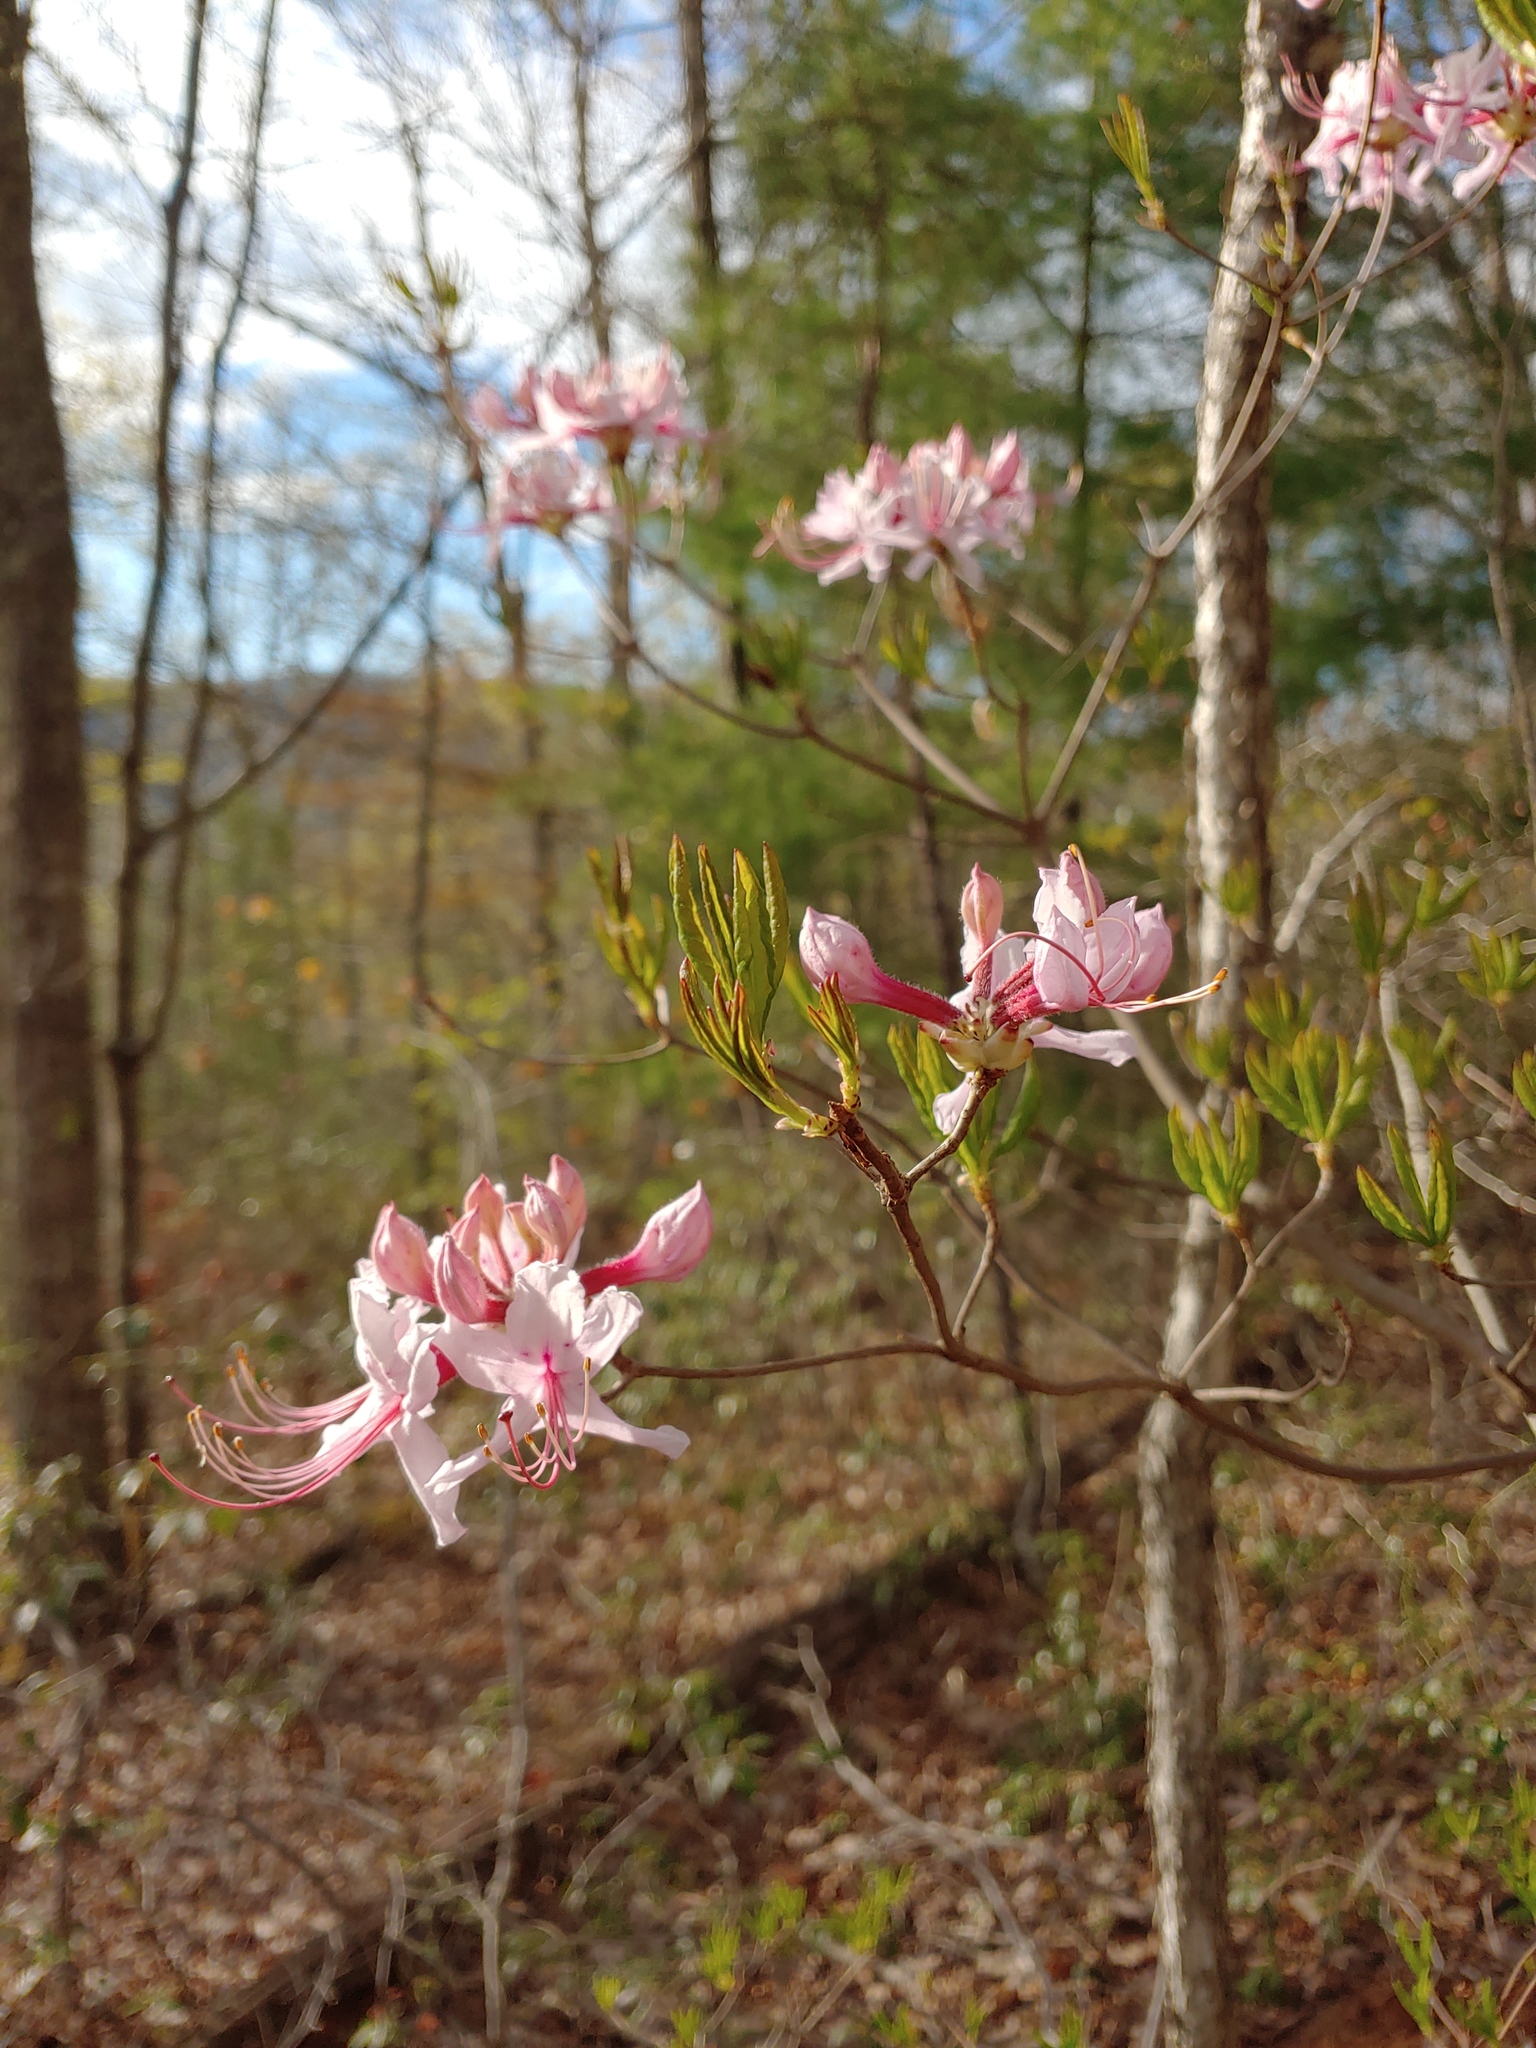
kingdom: Plantae
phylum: Tracheophyta
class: Magnoliopsida
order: Ericales
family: Ericaceae
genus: Rhododendron
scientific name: Rhododendron periclymenoides
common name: Election-pink
